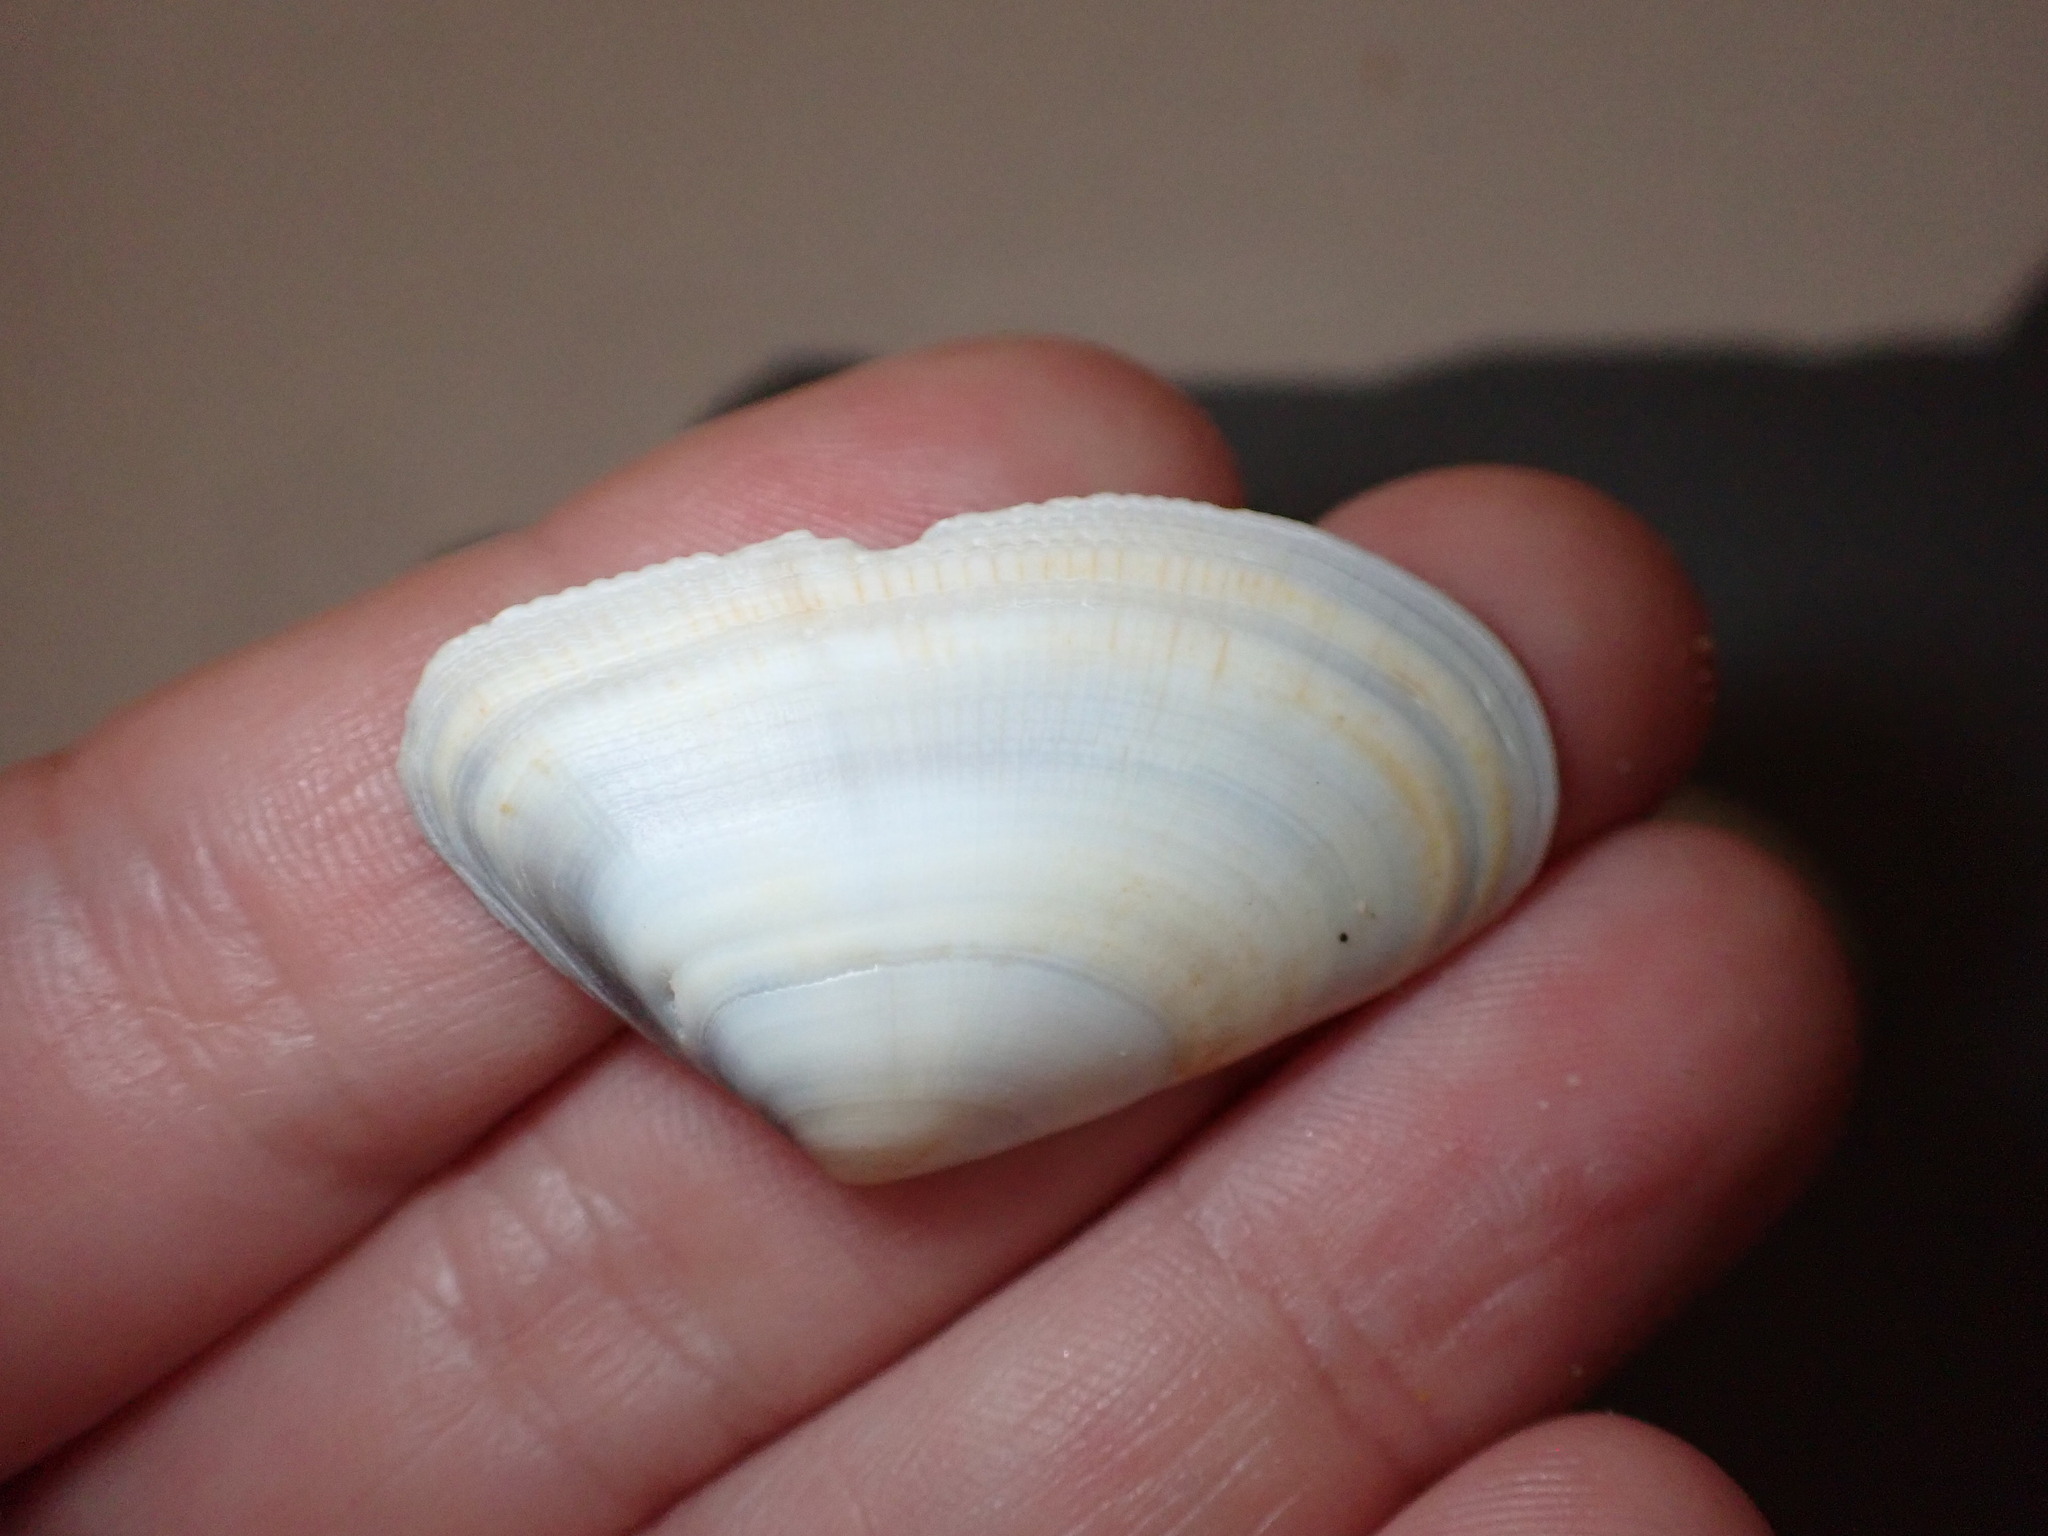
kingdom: Animalia
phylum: Mollusca
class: Bivalvia
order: Cardiida
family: Donacidae
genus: Donax
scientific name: Donax trunculus
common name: Truncate donax
